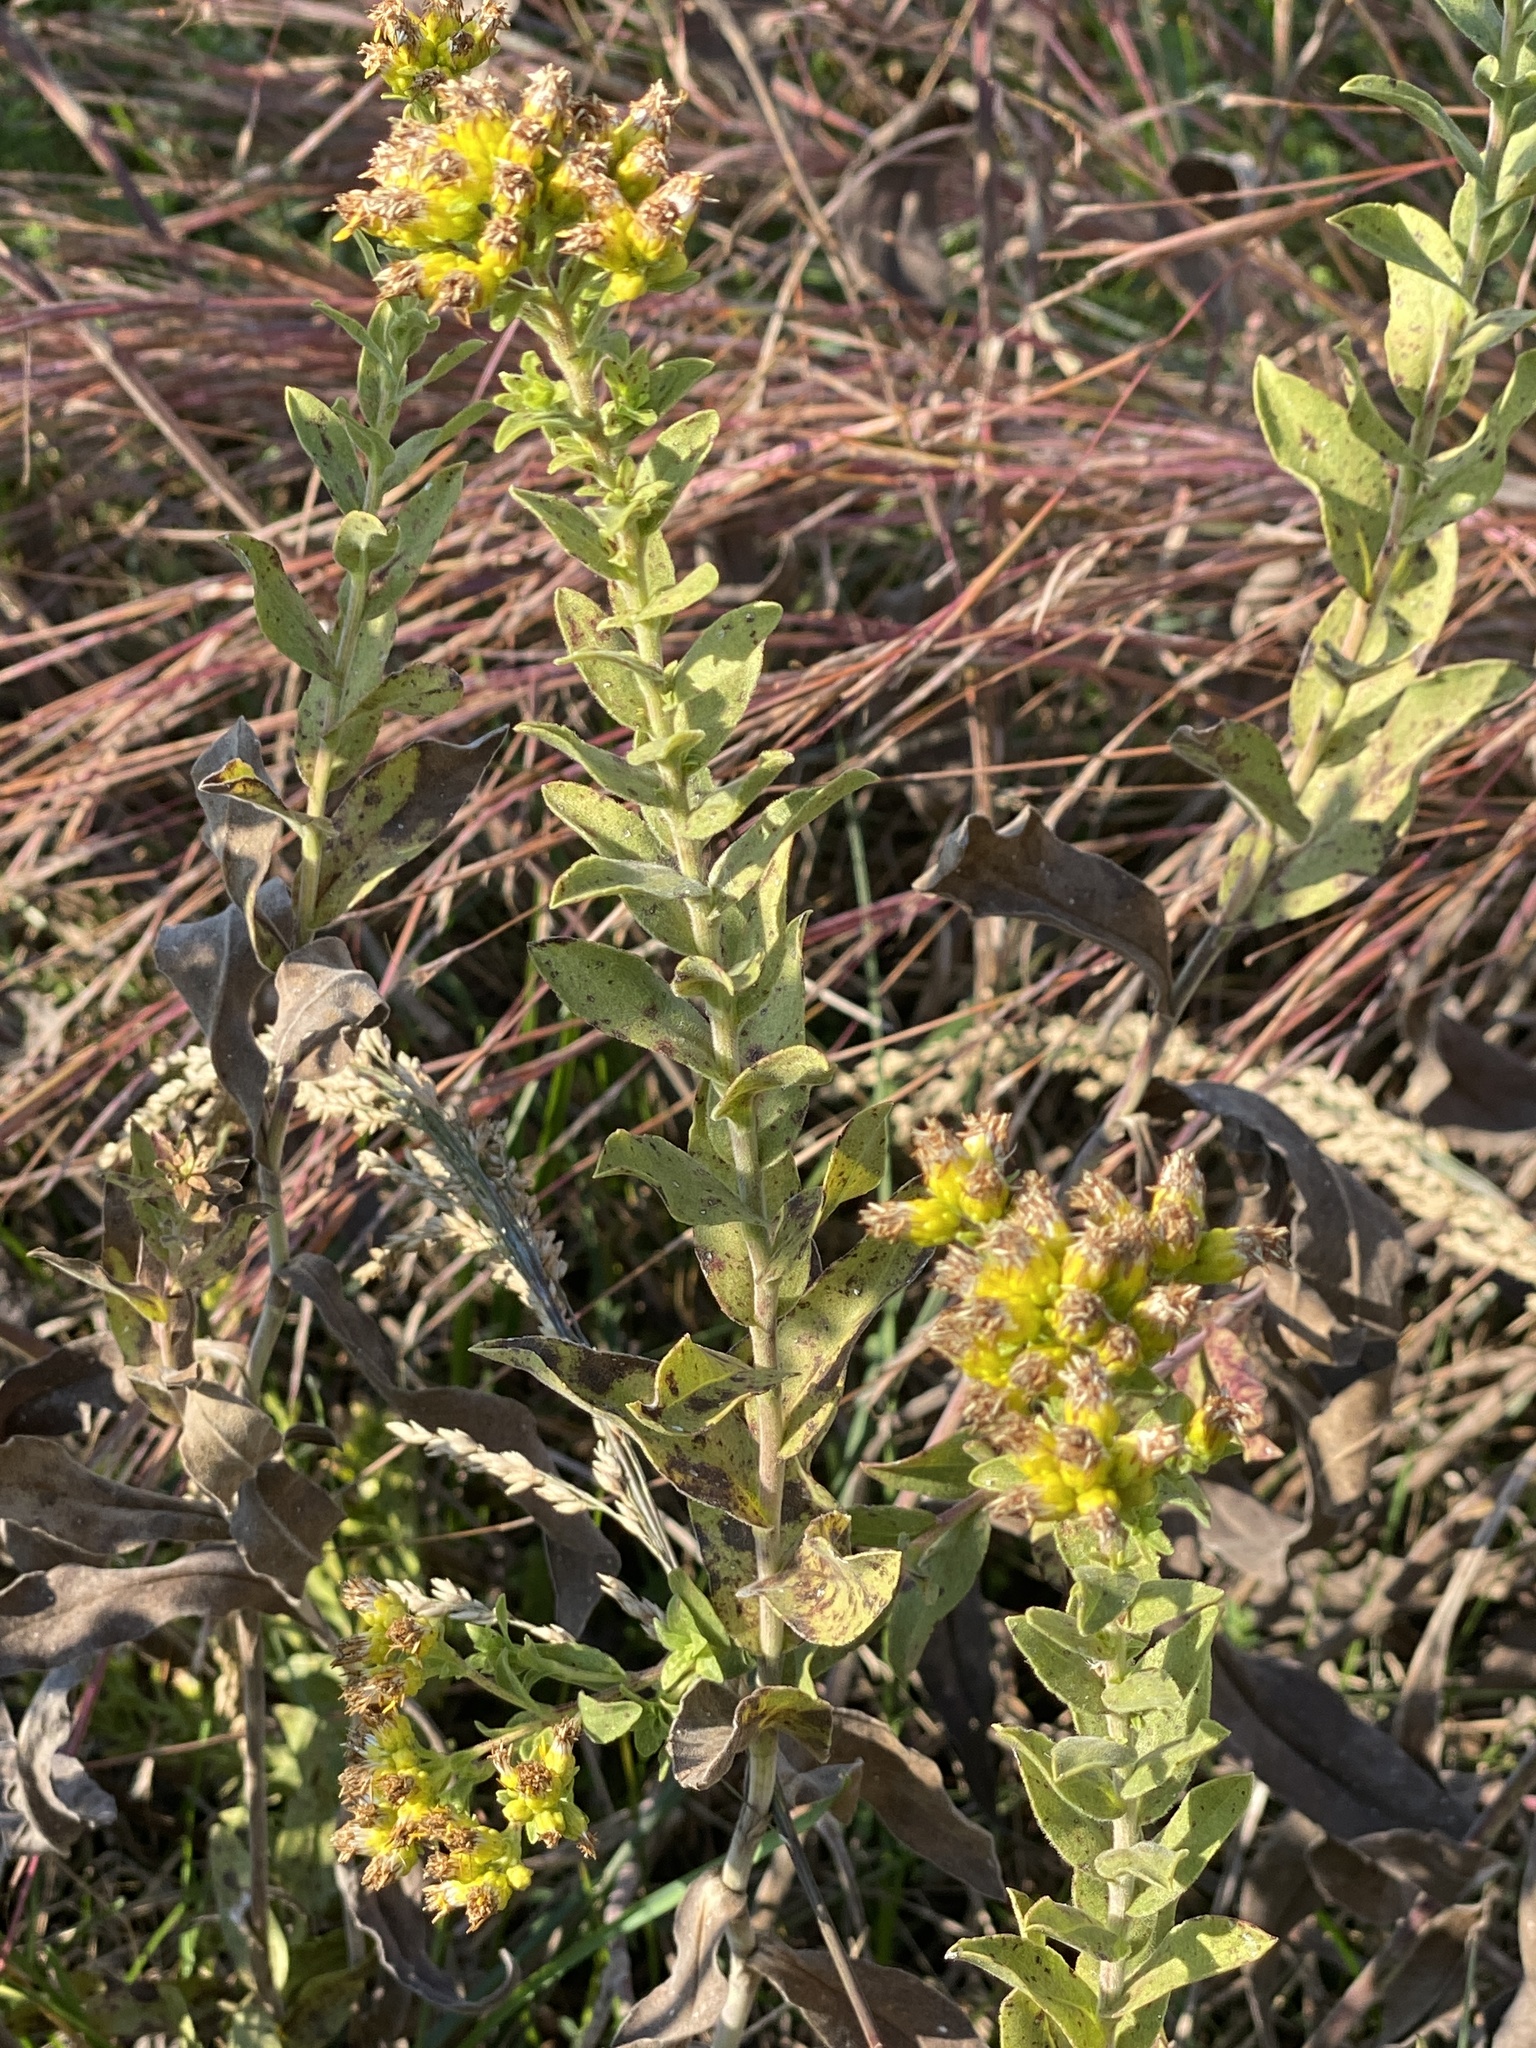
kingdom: Plantae
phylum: Tracheophyta
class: Magnoliopsida
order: Asterales
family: Asteraceae
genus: Solidago
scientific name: Solidago rigida
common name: Rigid goldenrod
